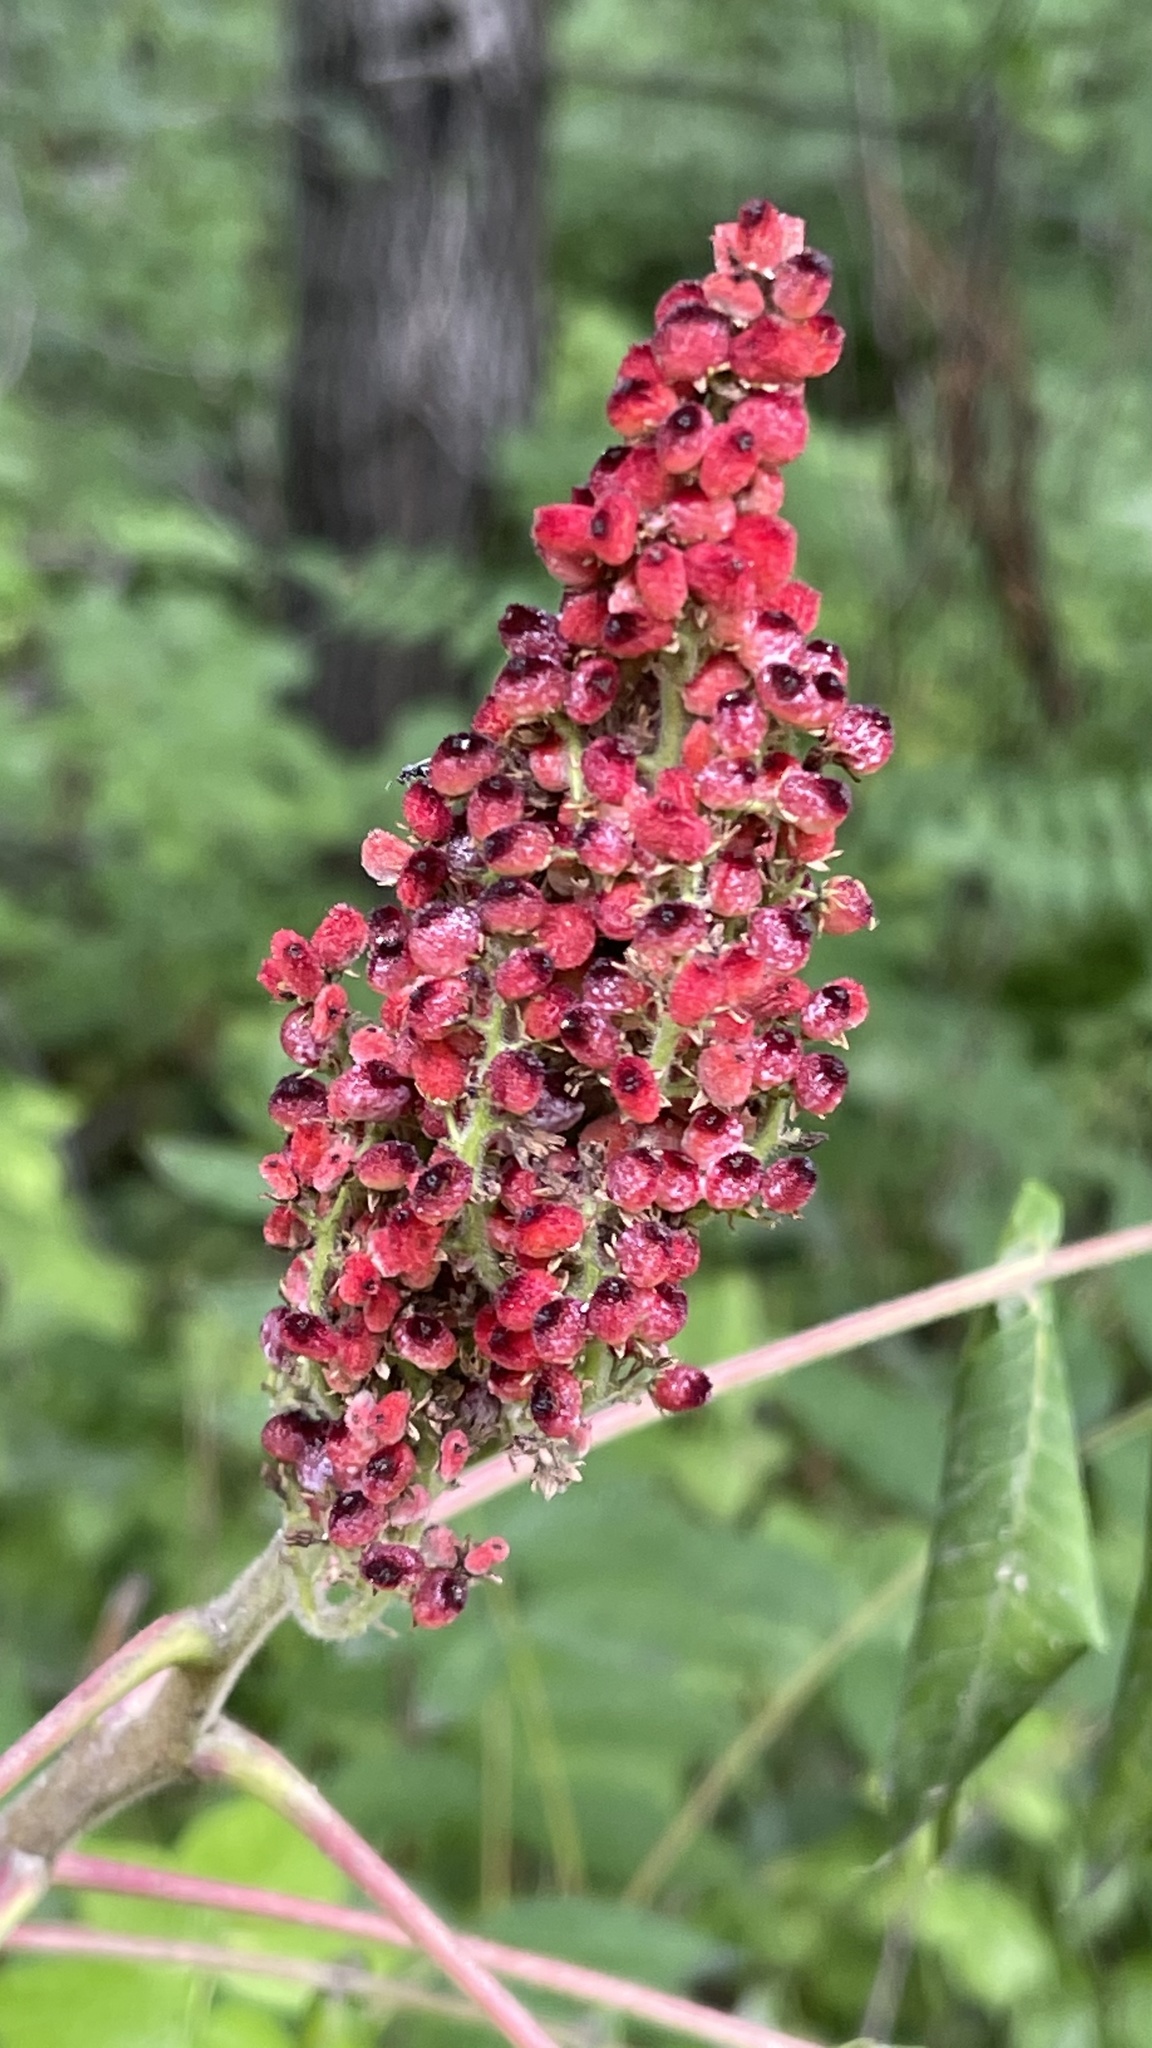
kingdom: Plantae
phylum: Tracheophyta
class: Magnoliopsida
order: Sapindales
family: Anacardiaceae
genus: Rhus
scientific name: Rhus glabra
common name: Scarlet sumac
